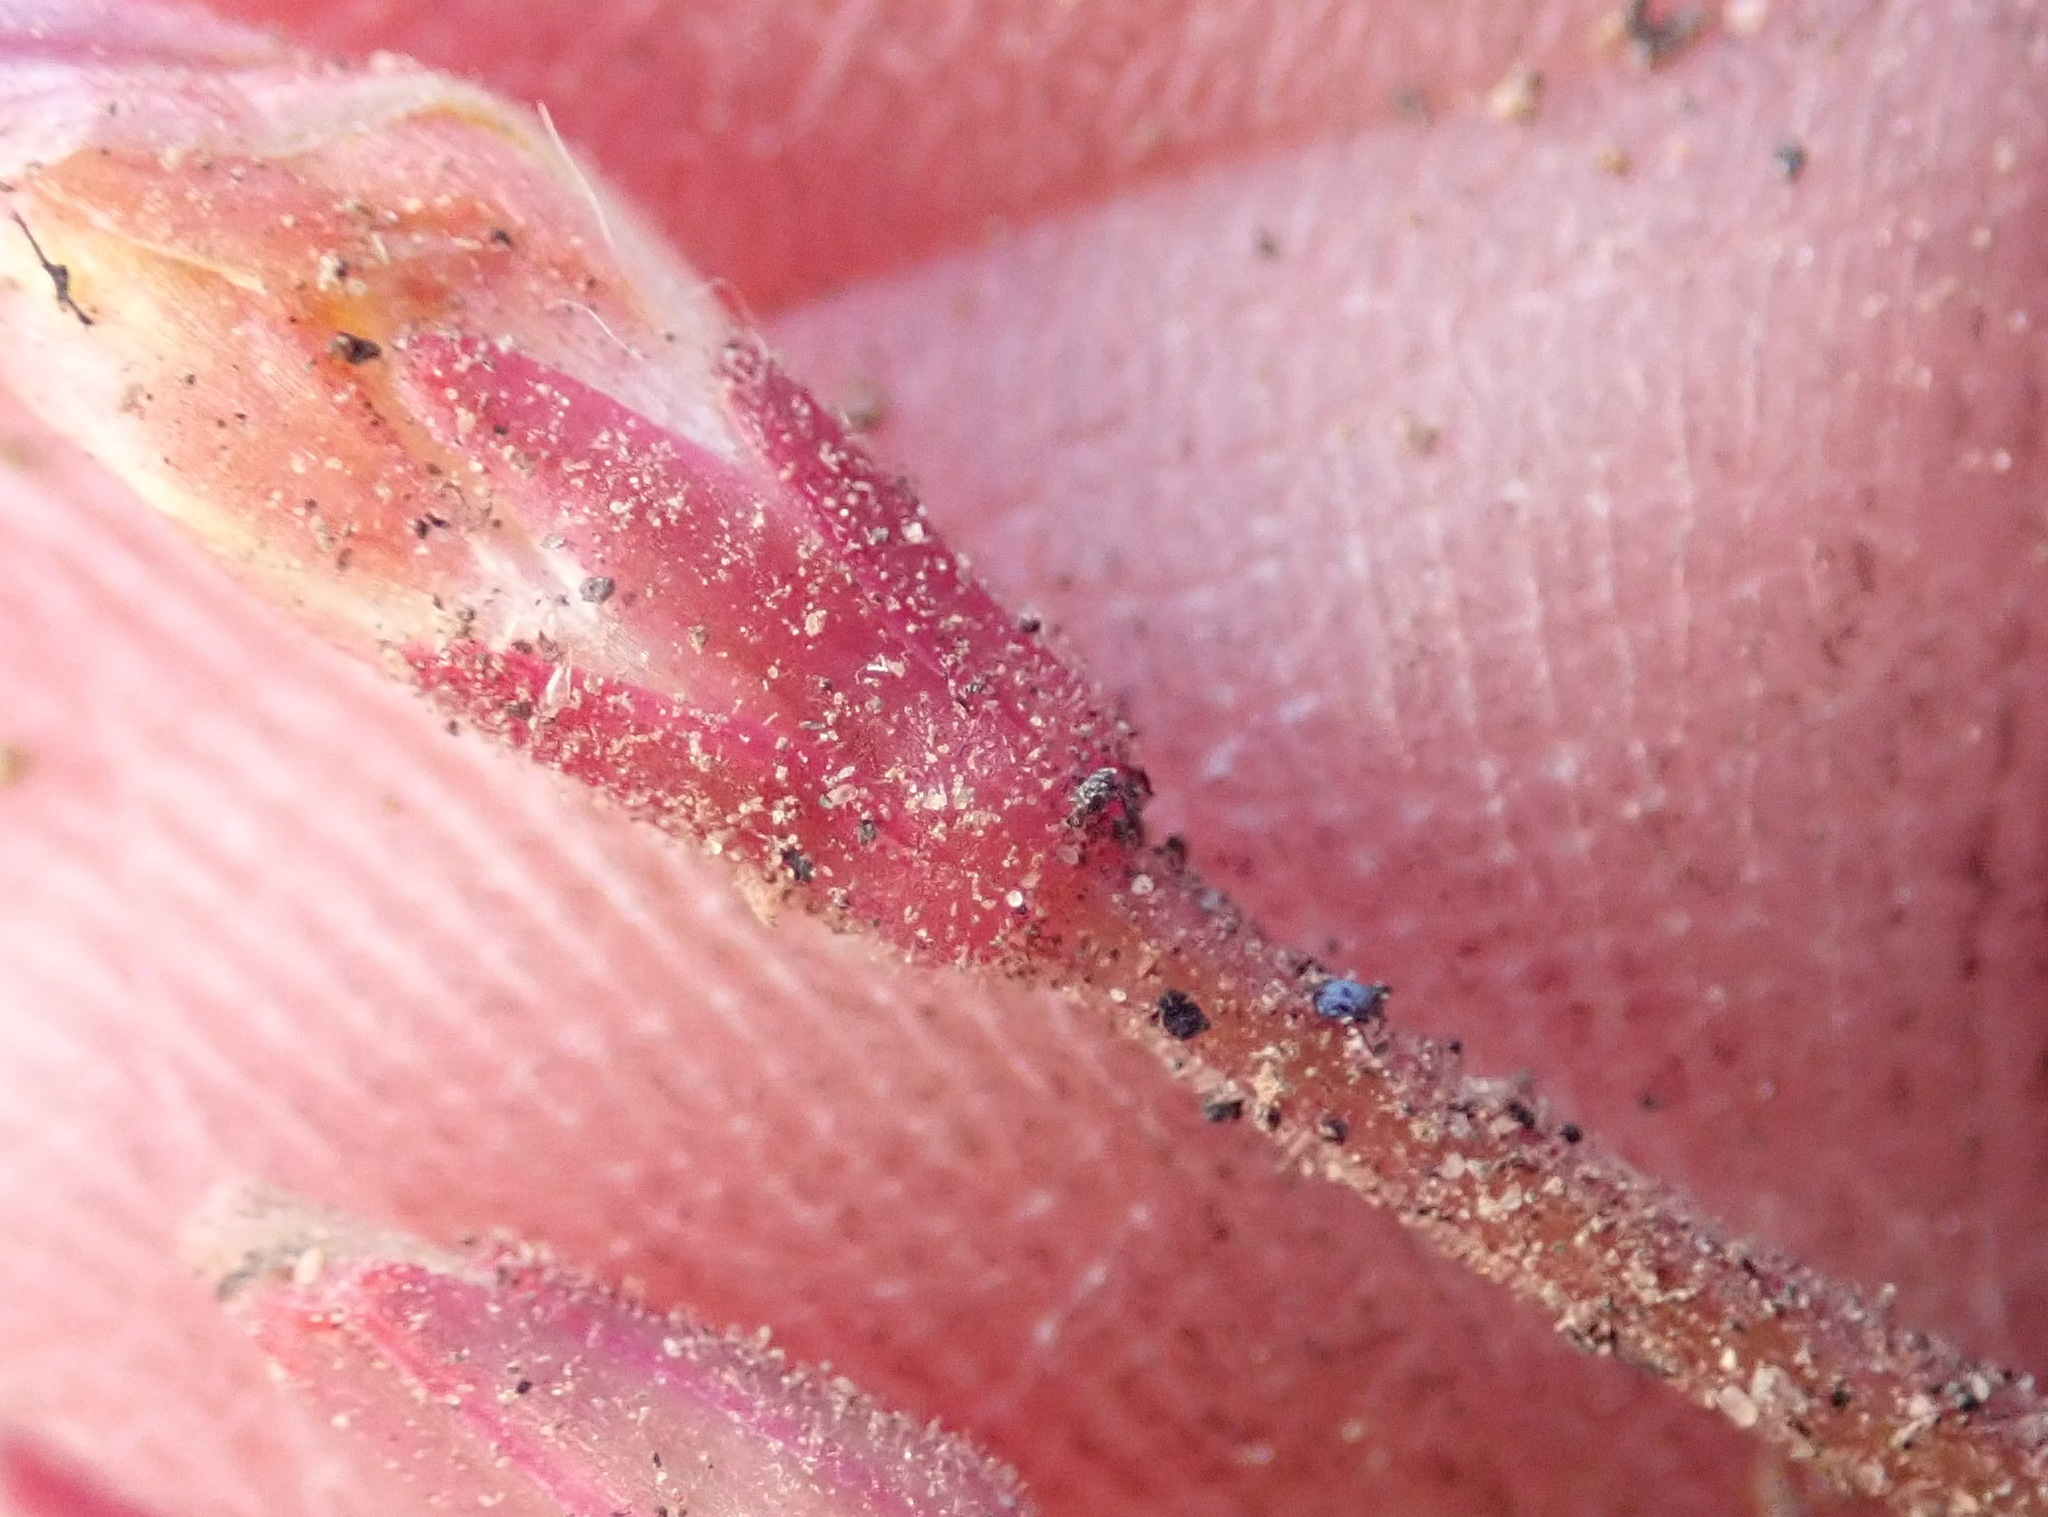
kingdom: Plantae
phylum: Tracheophyta
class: Magnoliopsida
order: Oxalidales
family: Oxalidaceae
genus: Oxalis
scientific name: Oxalis fergusoniae
